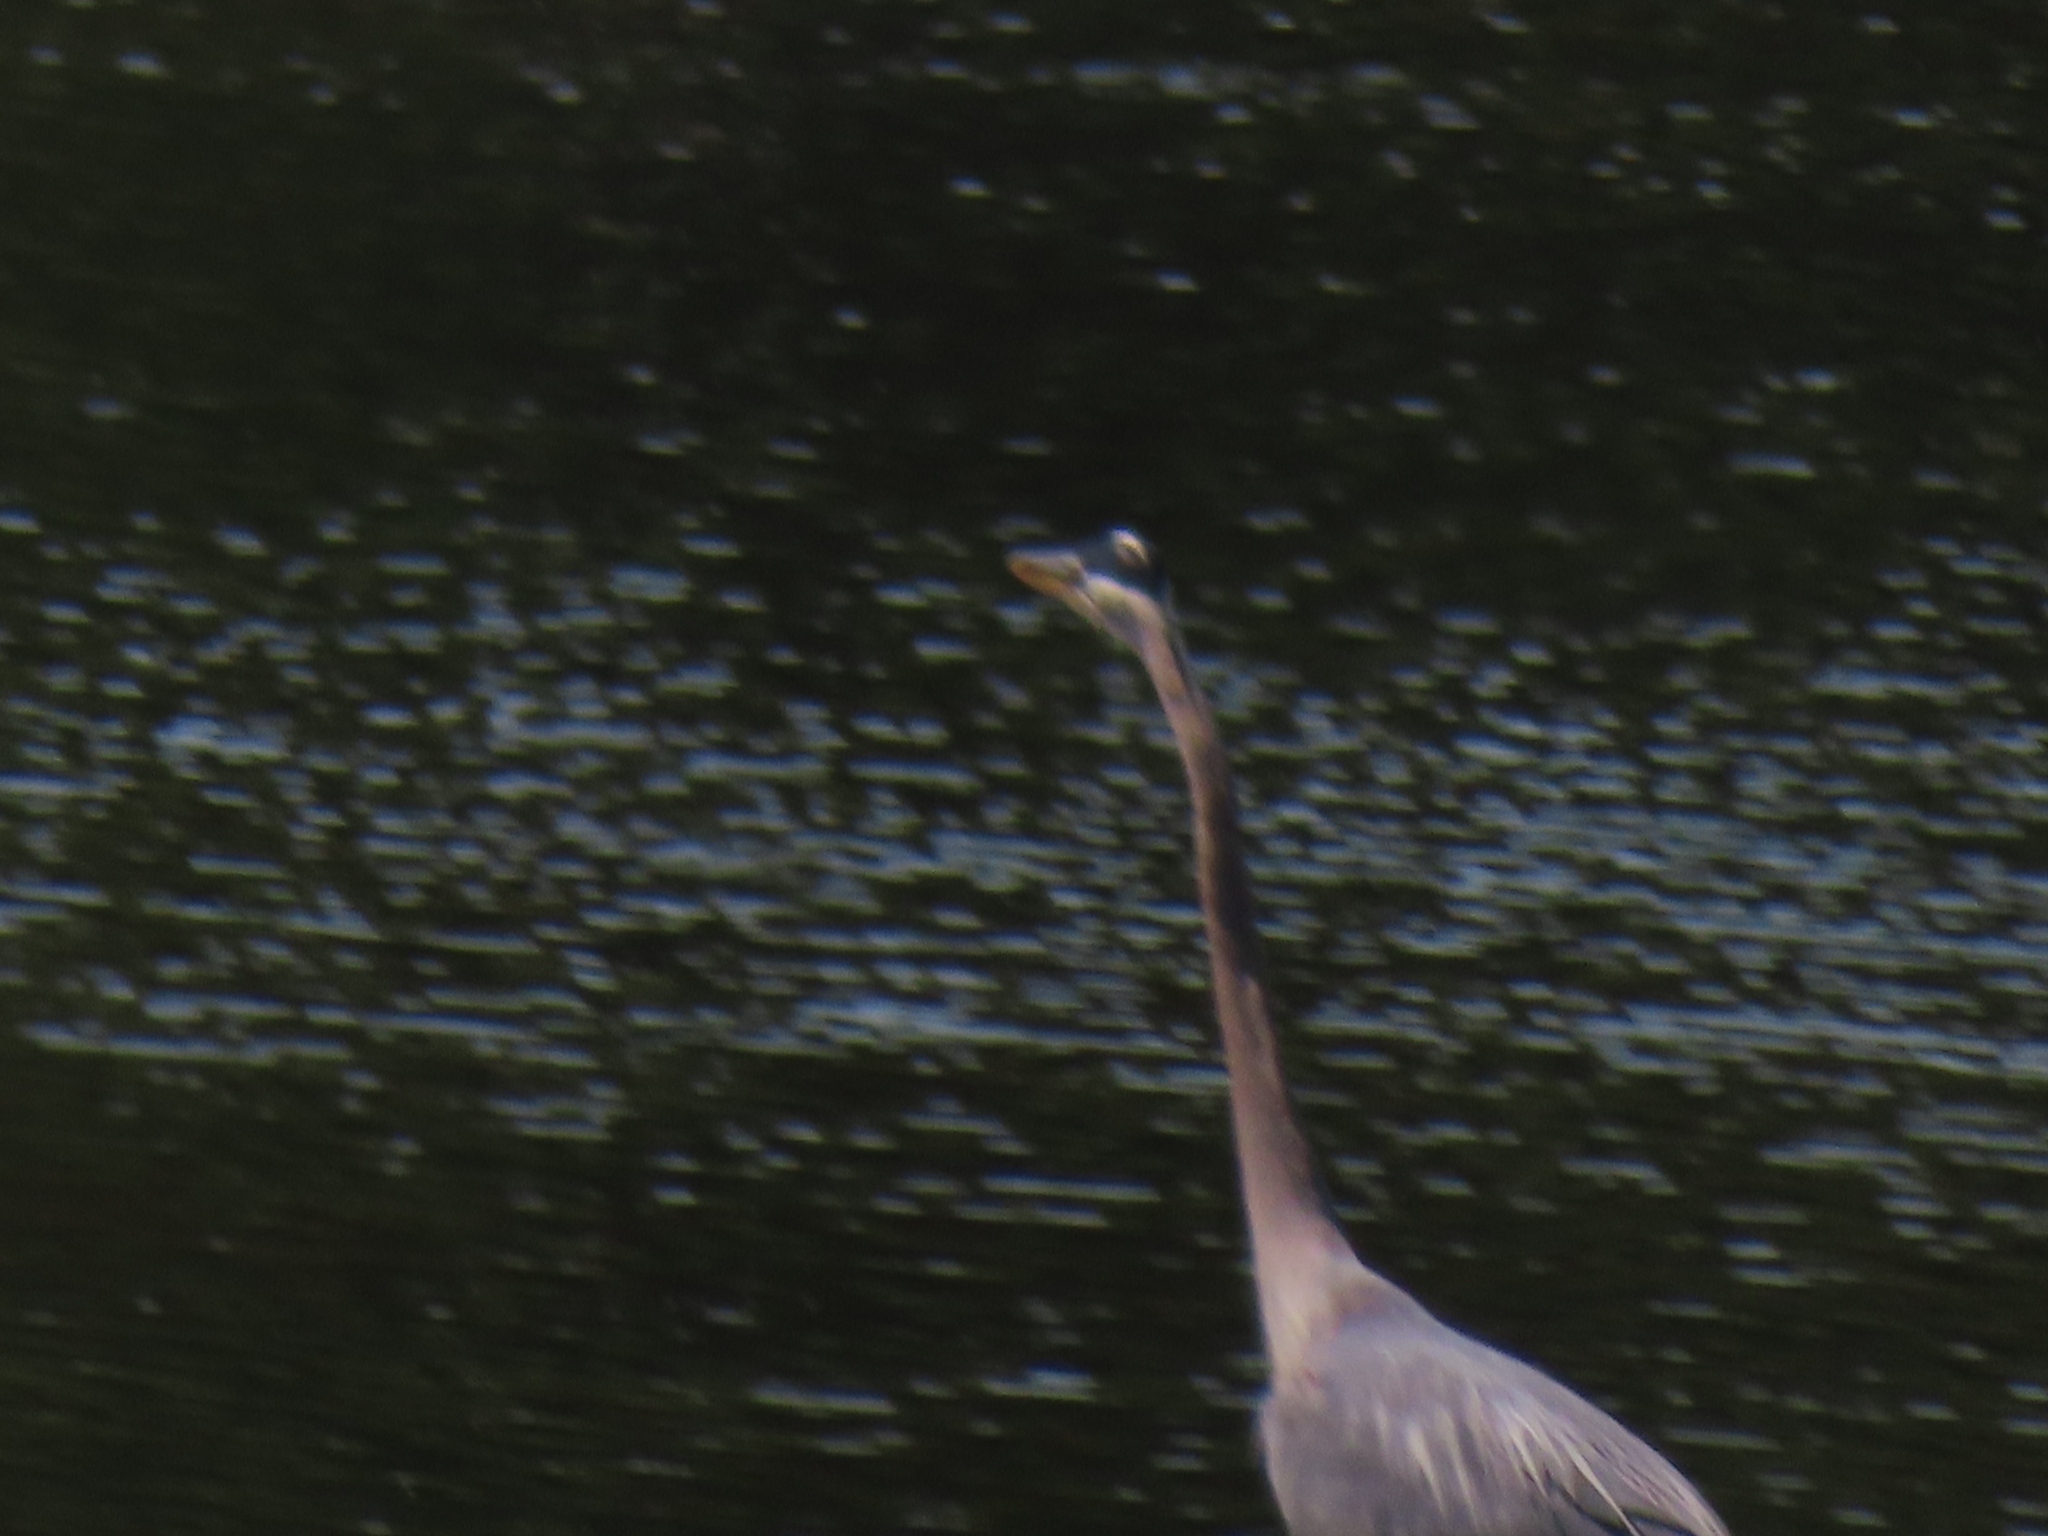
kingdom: Animalia
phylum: Chordata
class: Aves
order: Pelecaniformes
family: Ardeidae
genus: Ardea
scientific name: Ardea herodias
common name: Great blue heron
